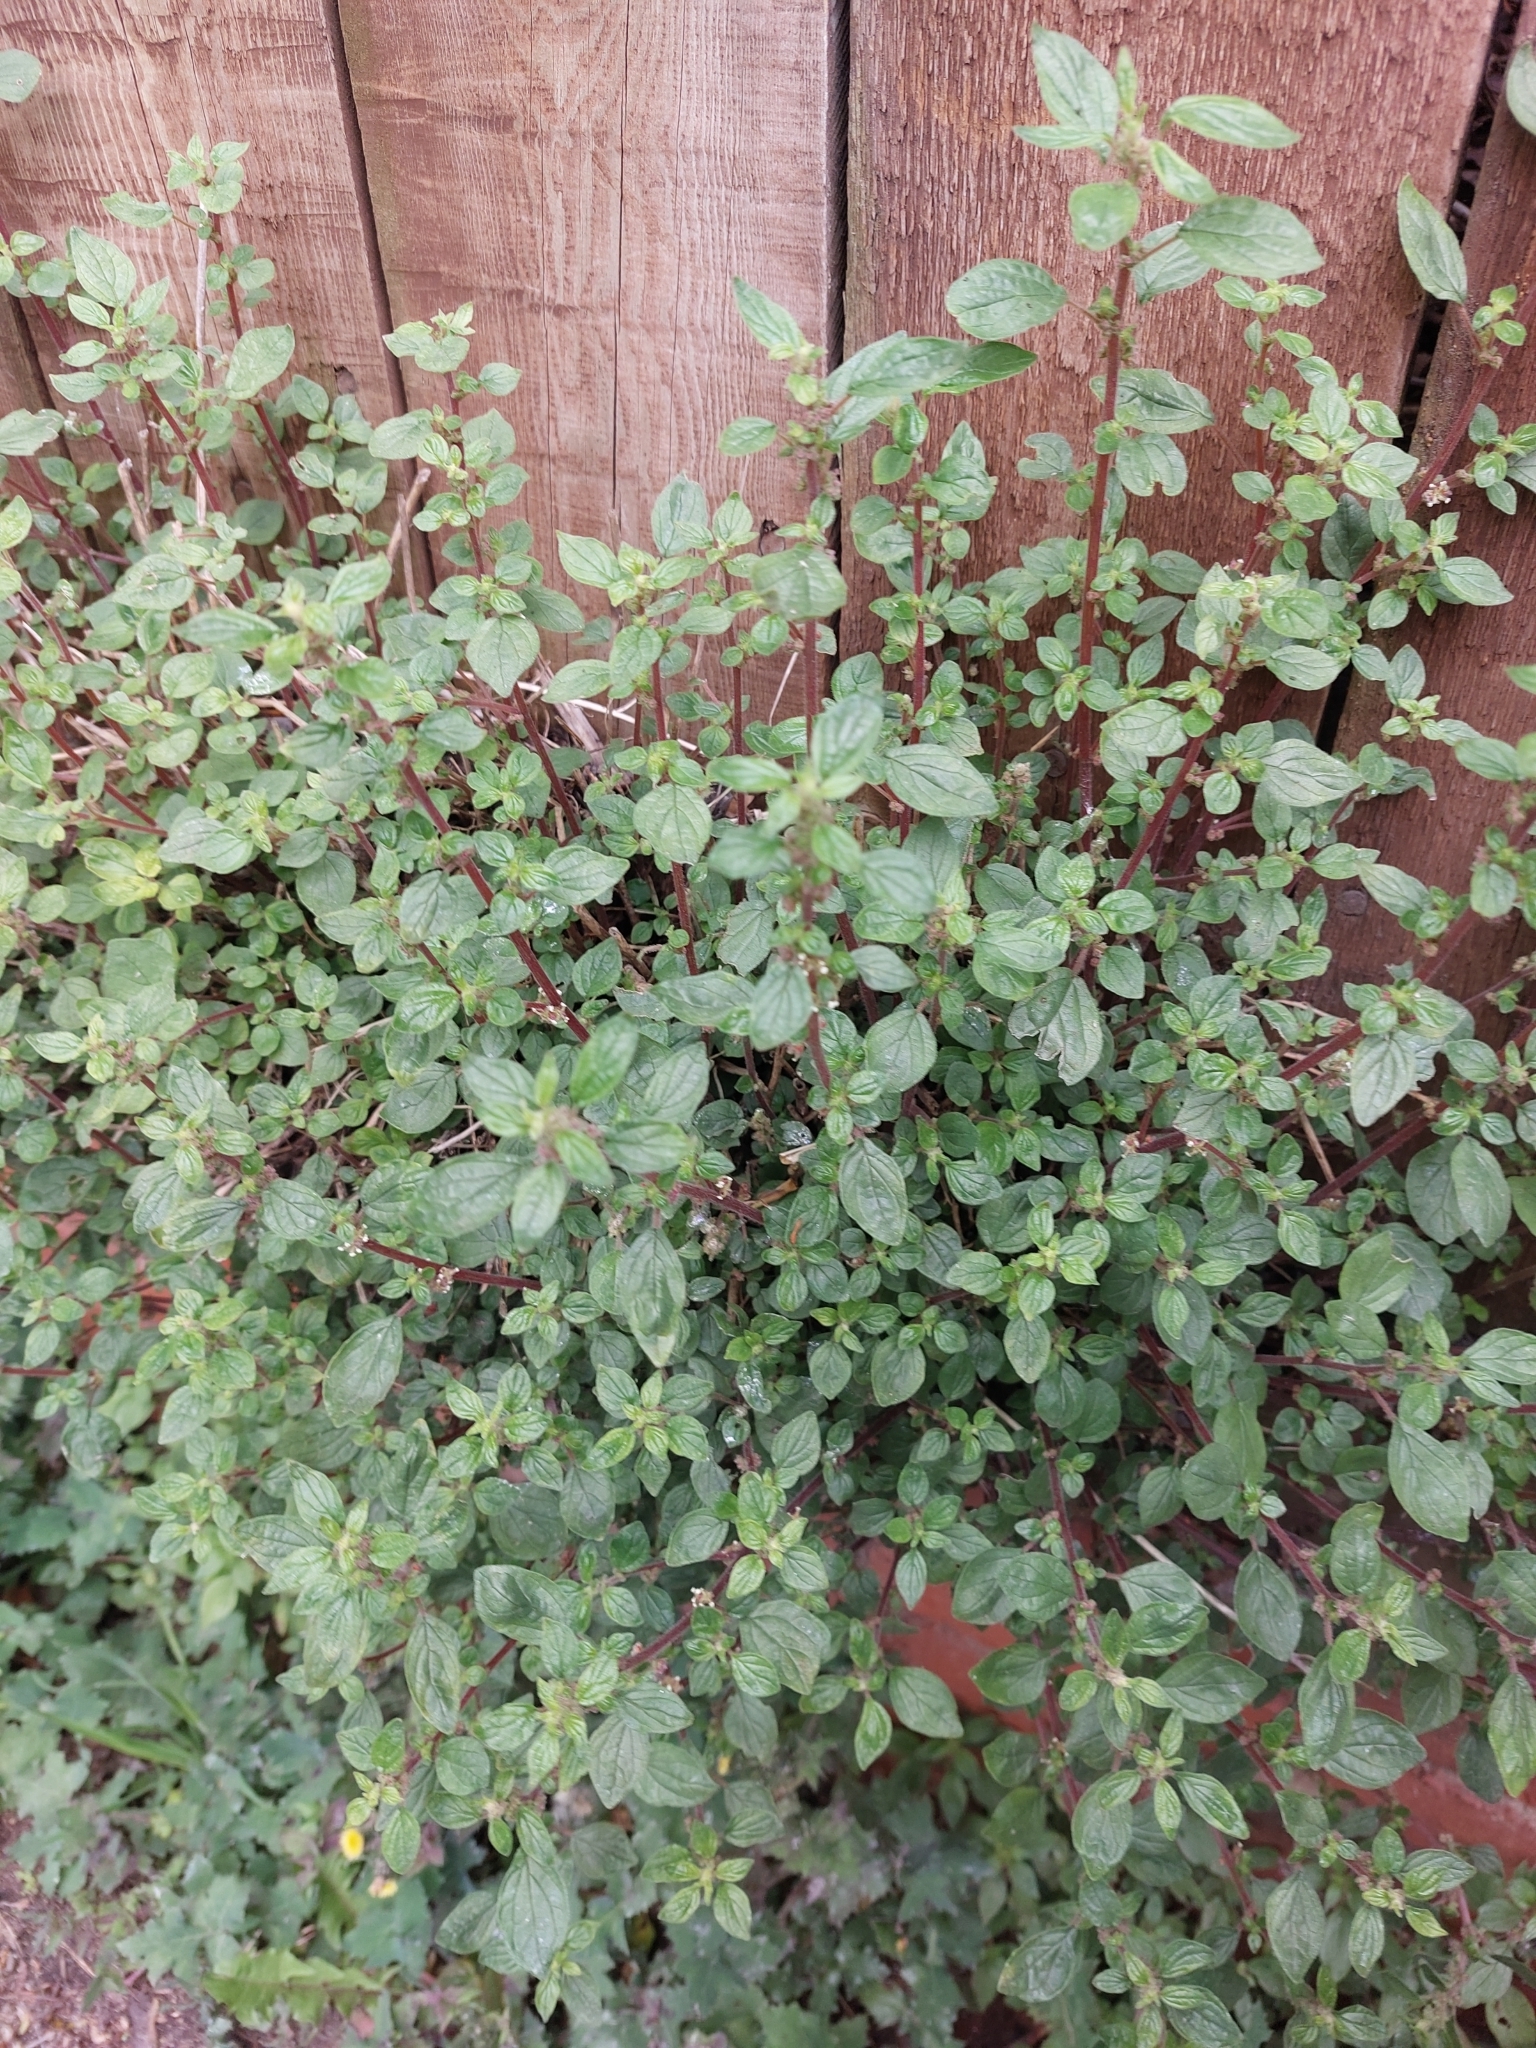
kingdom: Plantae
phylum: Tracheophyta
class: Magnoliopsida
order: Rosales
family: Urticaceae
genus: Parietaria
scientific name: Parietaria judaica
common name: Pellitory-of-the-wall
